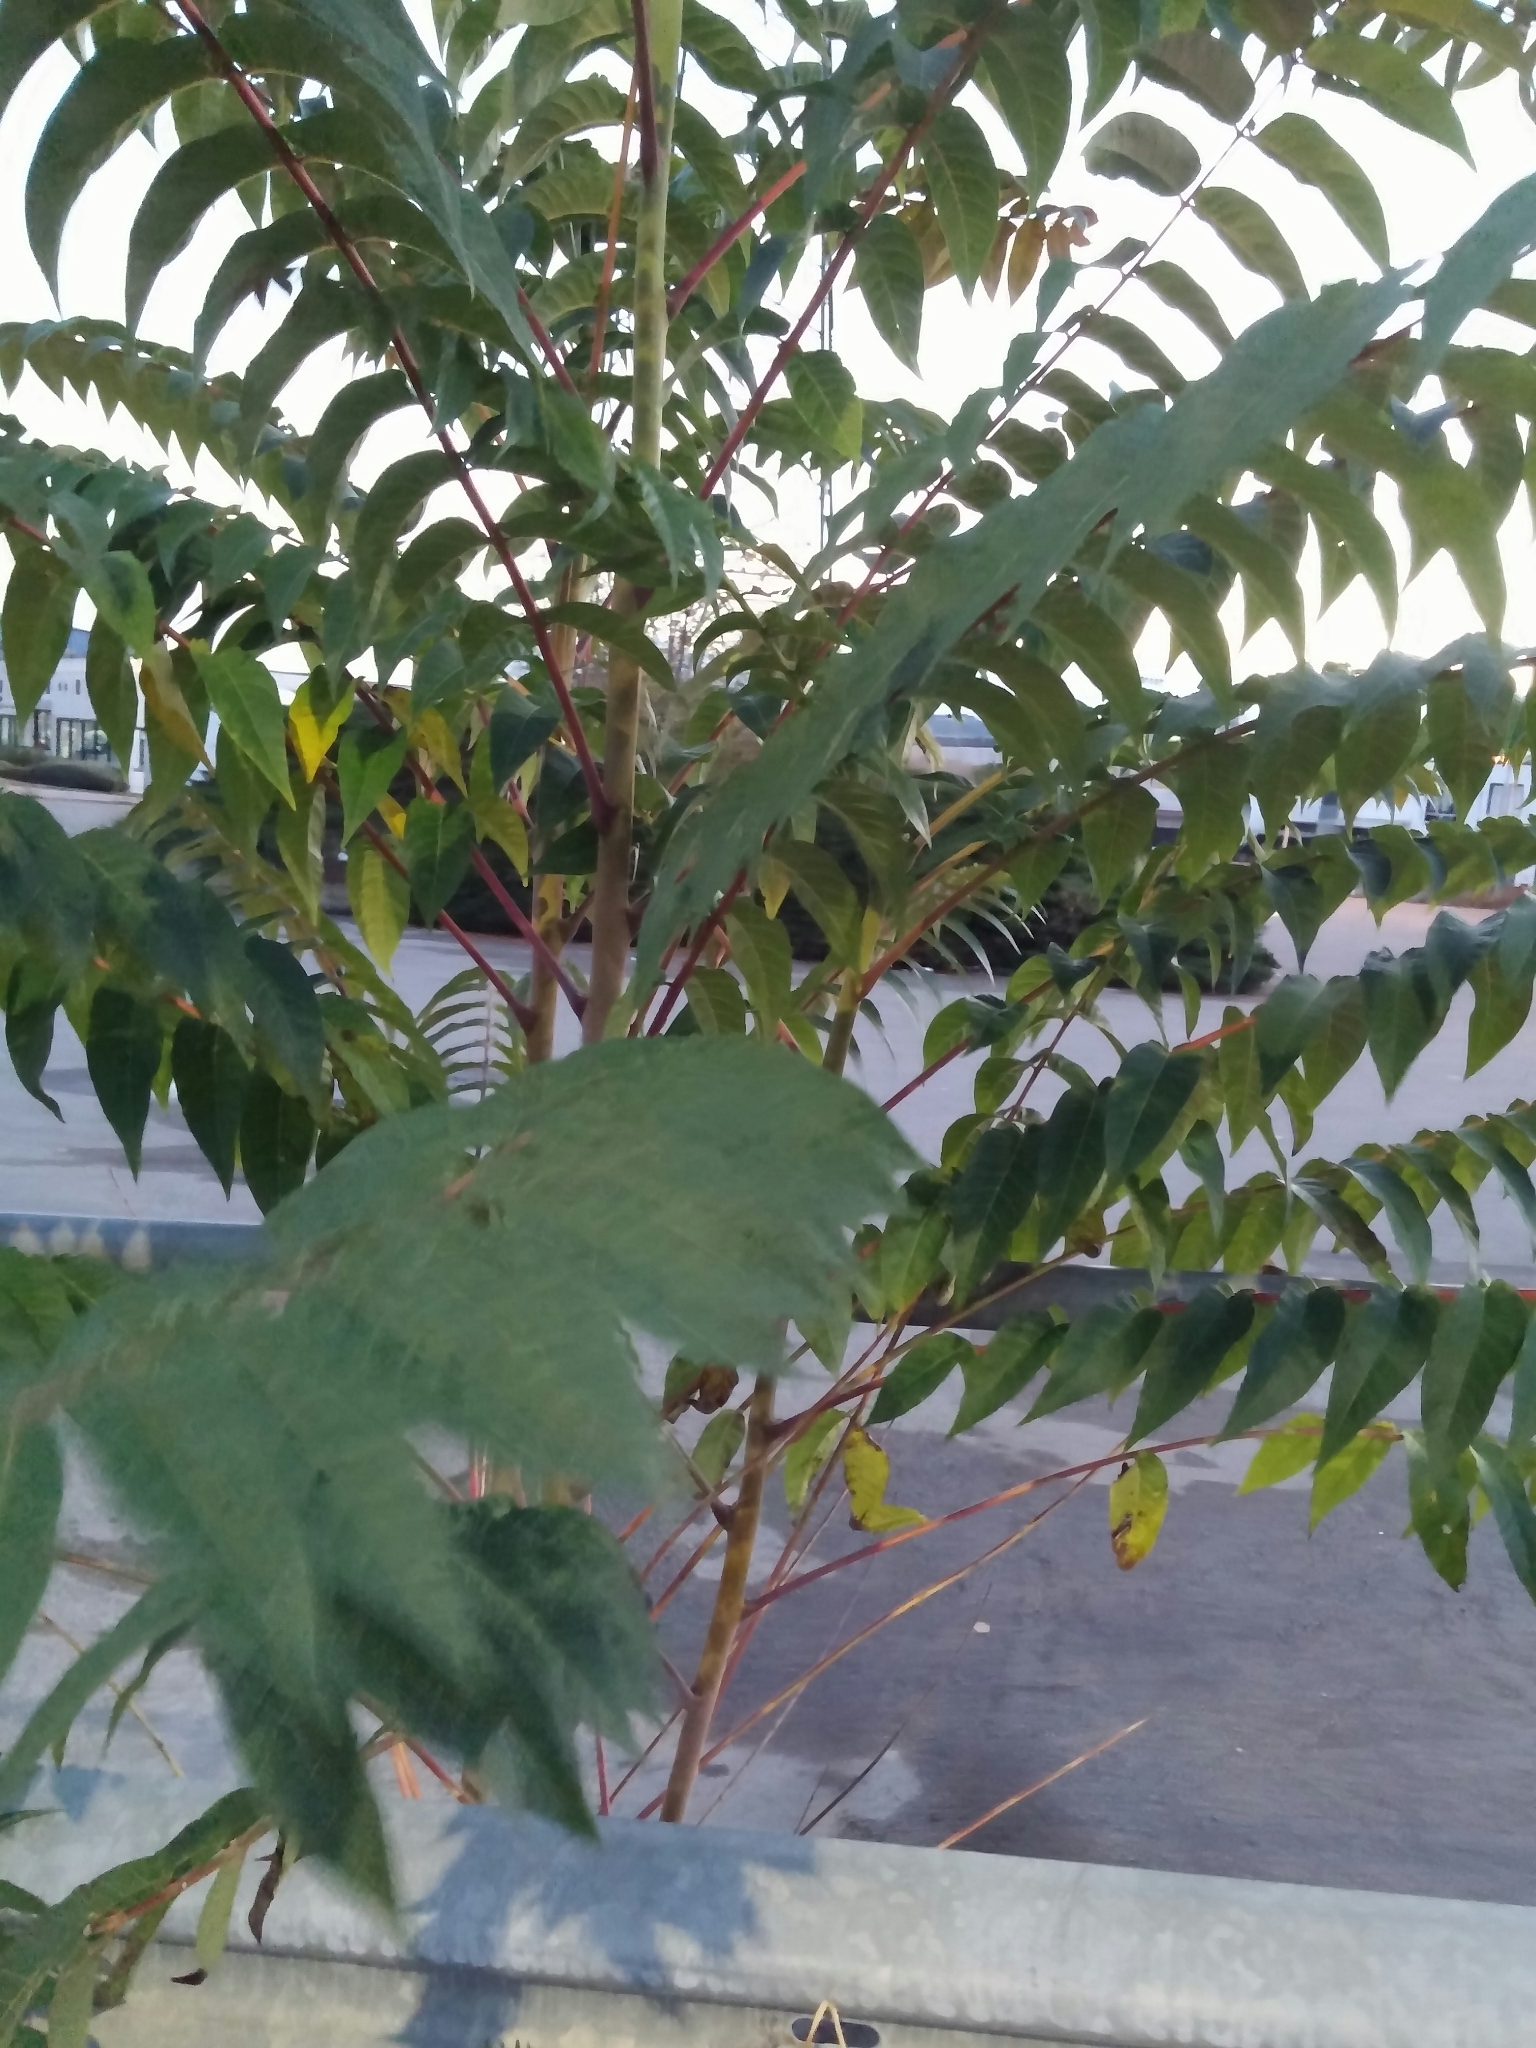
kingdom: Plantae
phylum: Tracheophyta
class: Magnoliopsida
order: Sapindales
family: Simaroubaceae
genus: Ailanthus
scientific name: Ailanthus altissima
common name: Tree-of-heaven
